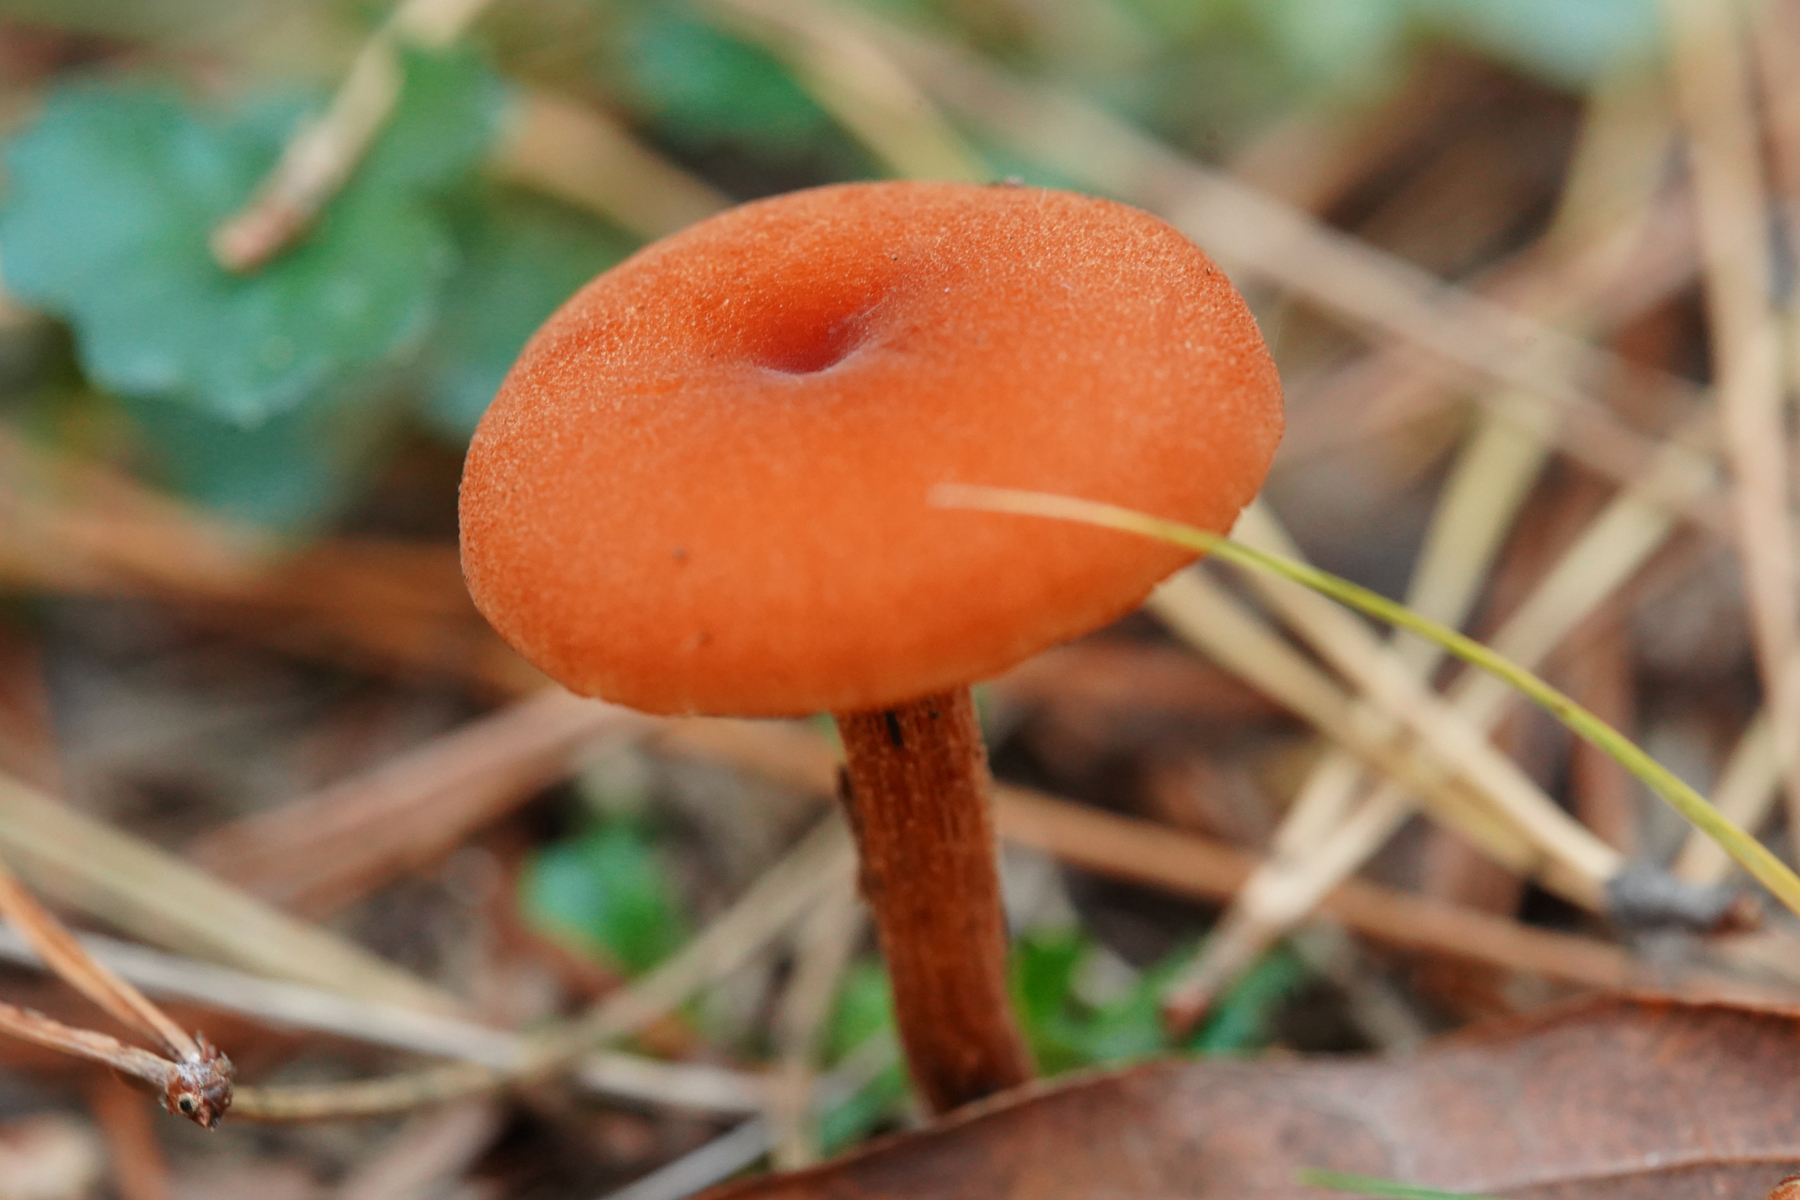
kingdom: Fungi
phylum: Basidiomycota
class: Agaricomycetes
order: Agaricales
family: Hydnangiaceae
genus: Laccaria
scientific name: Laccaria laccata
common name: Deceiver
